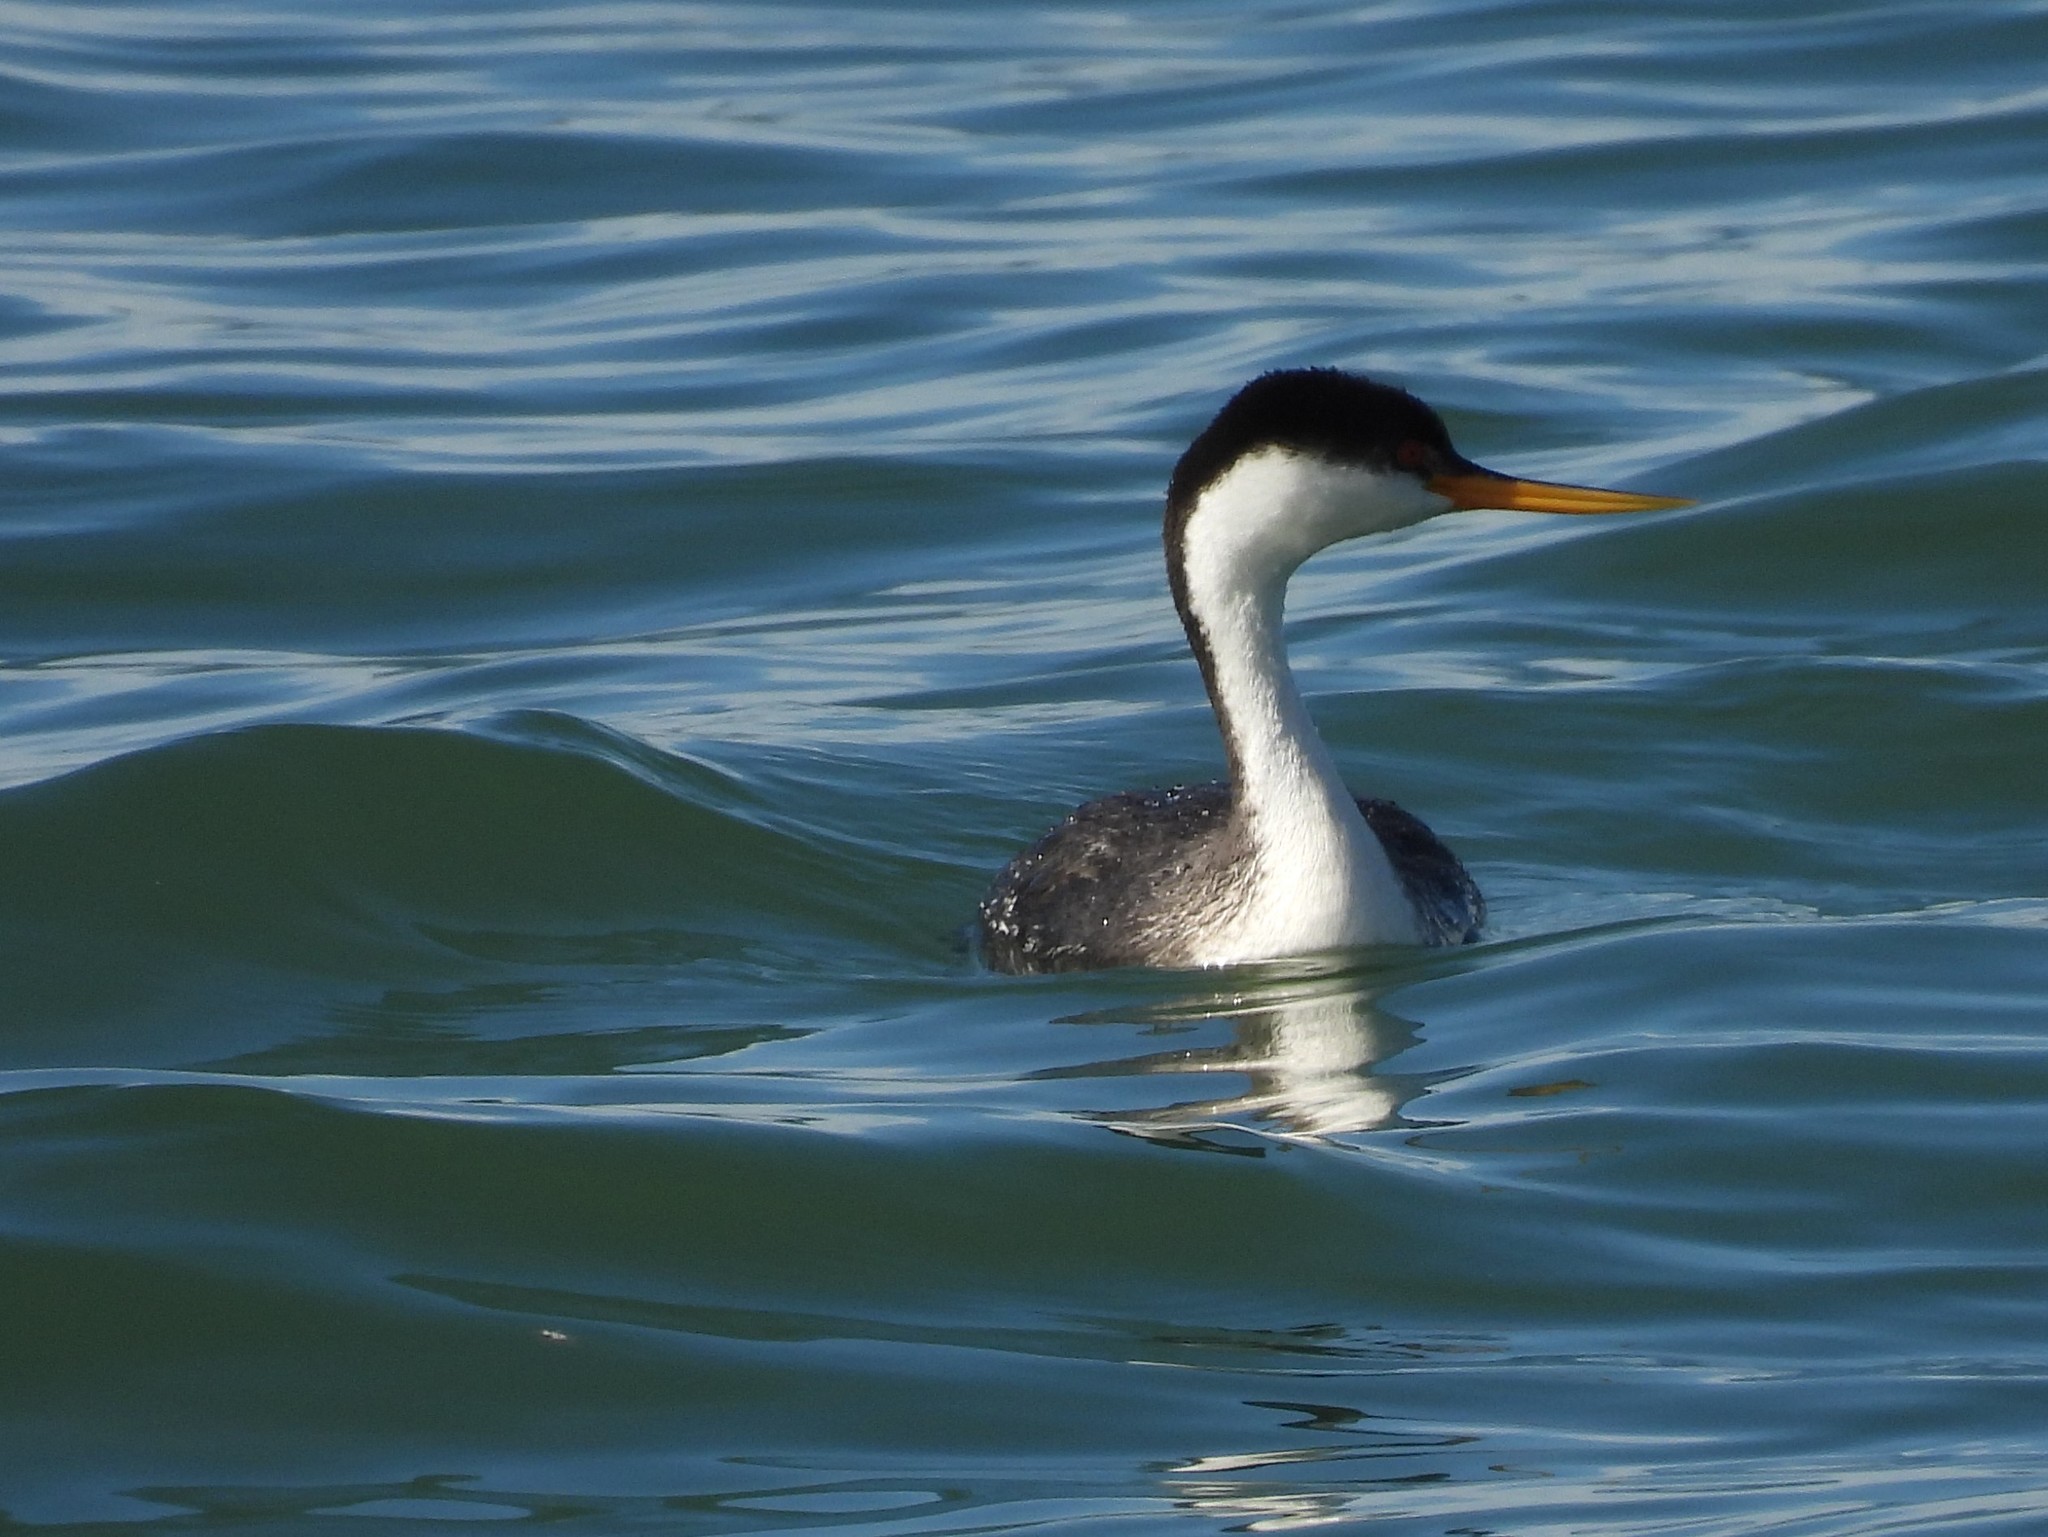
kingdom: Animalia
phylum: Chordata
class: Aves
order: Podicipediformes
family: Podicipedidae
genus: Aechmophorus
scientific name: Aechmophorus occidentalis
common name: Western grebe
